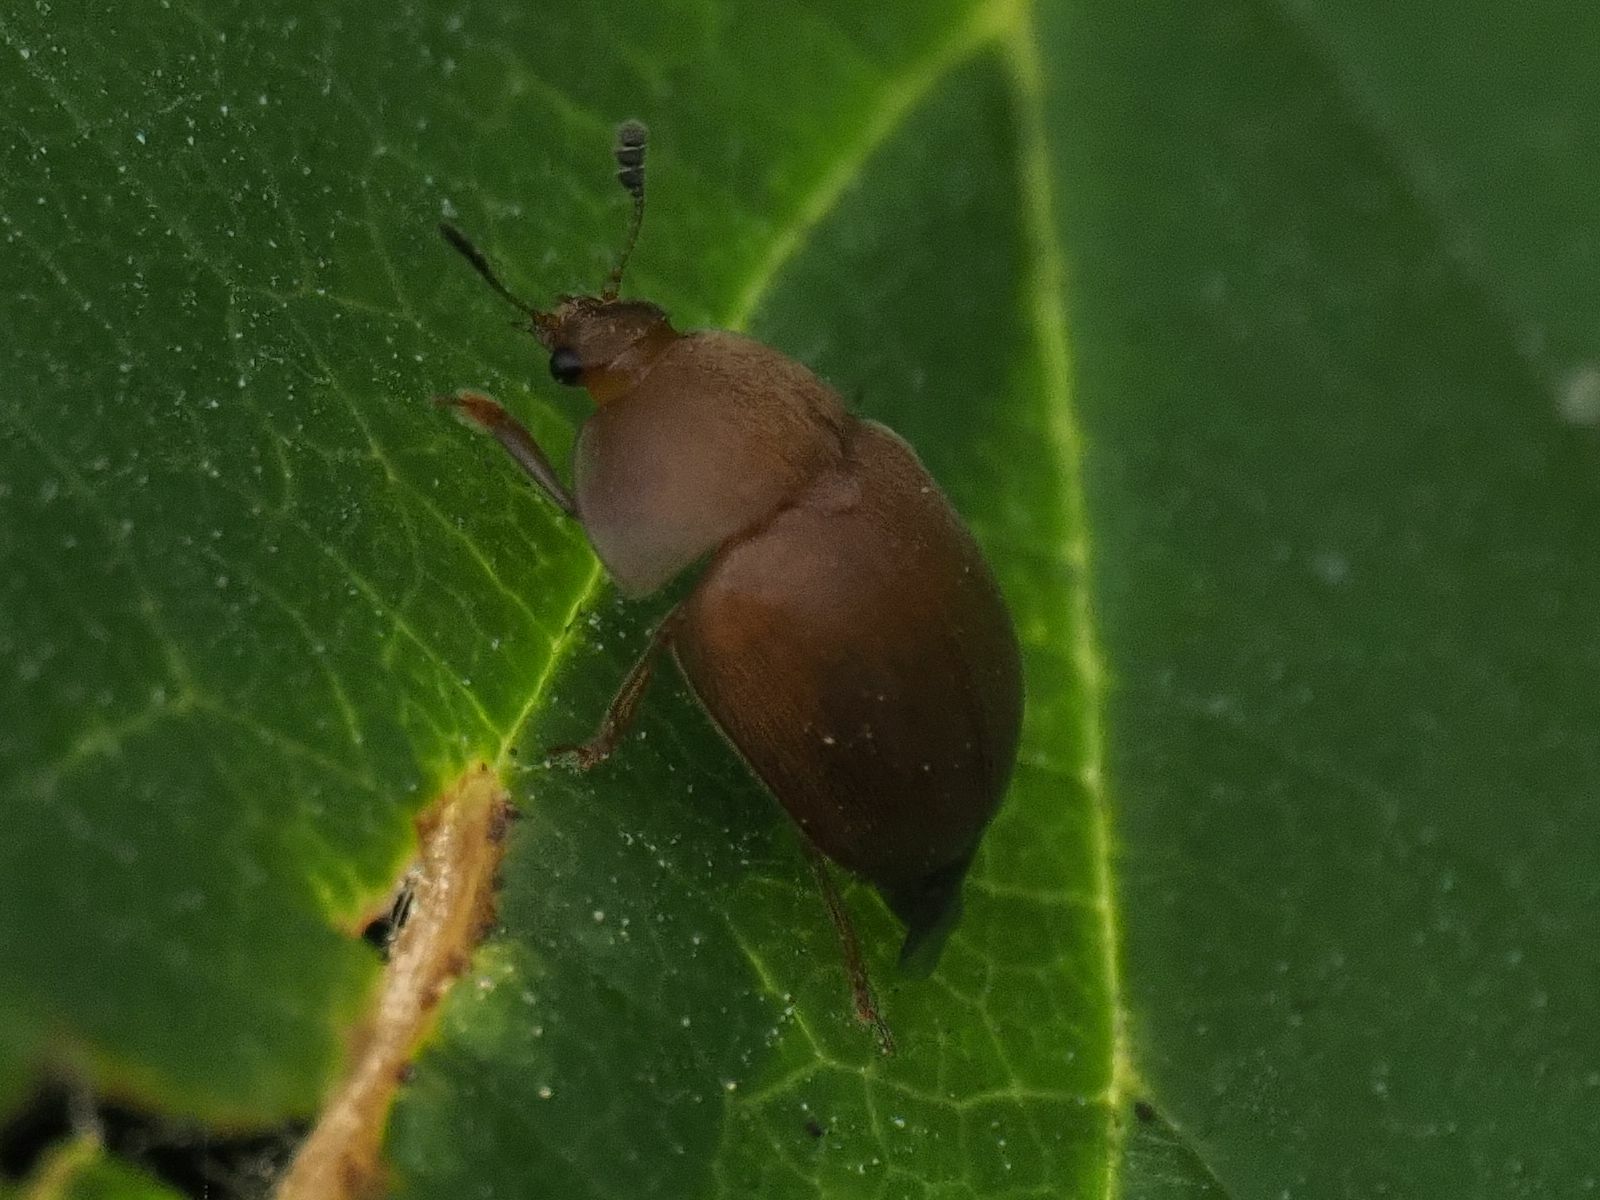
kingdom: Animalia
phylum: Arthropoda
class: Insecta
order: Coleoptera
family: Nitidulidae
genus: Cychramus
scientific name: Cychramus luteus
